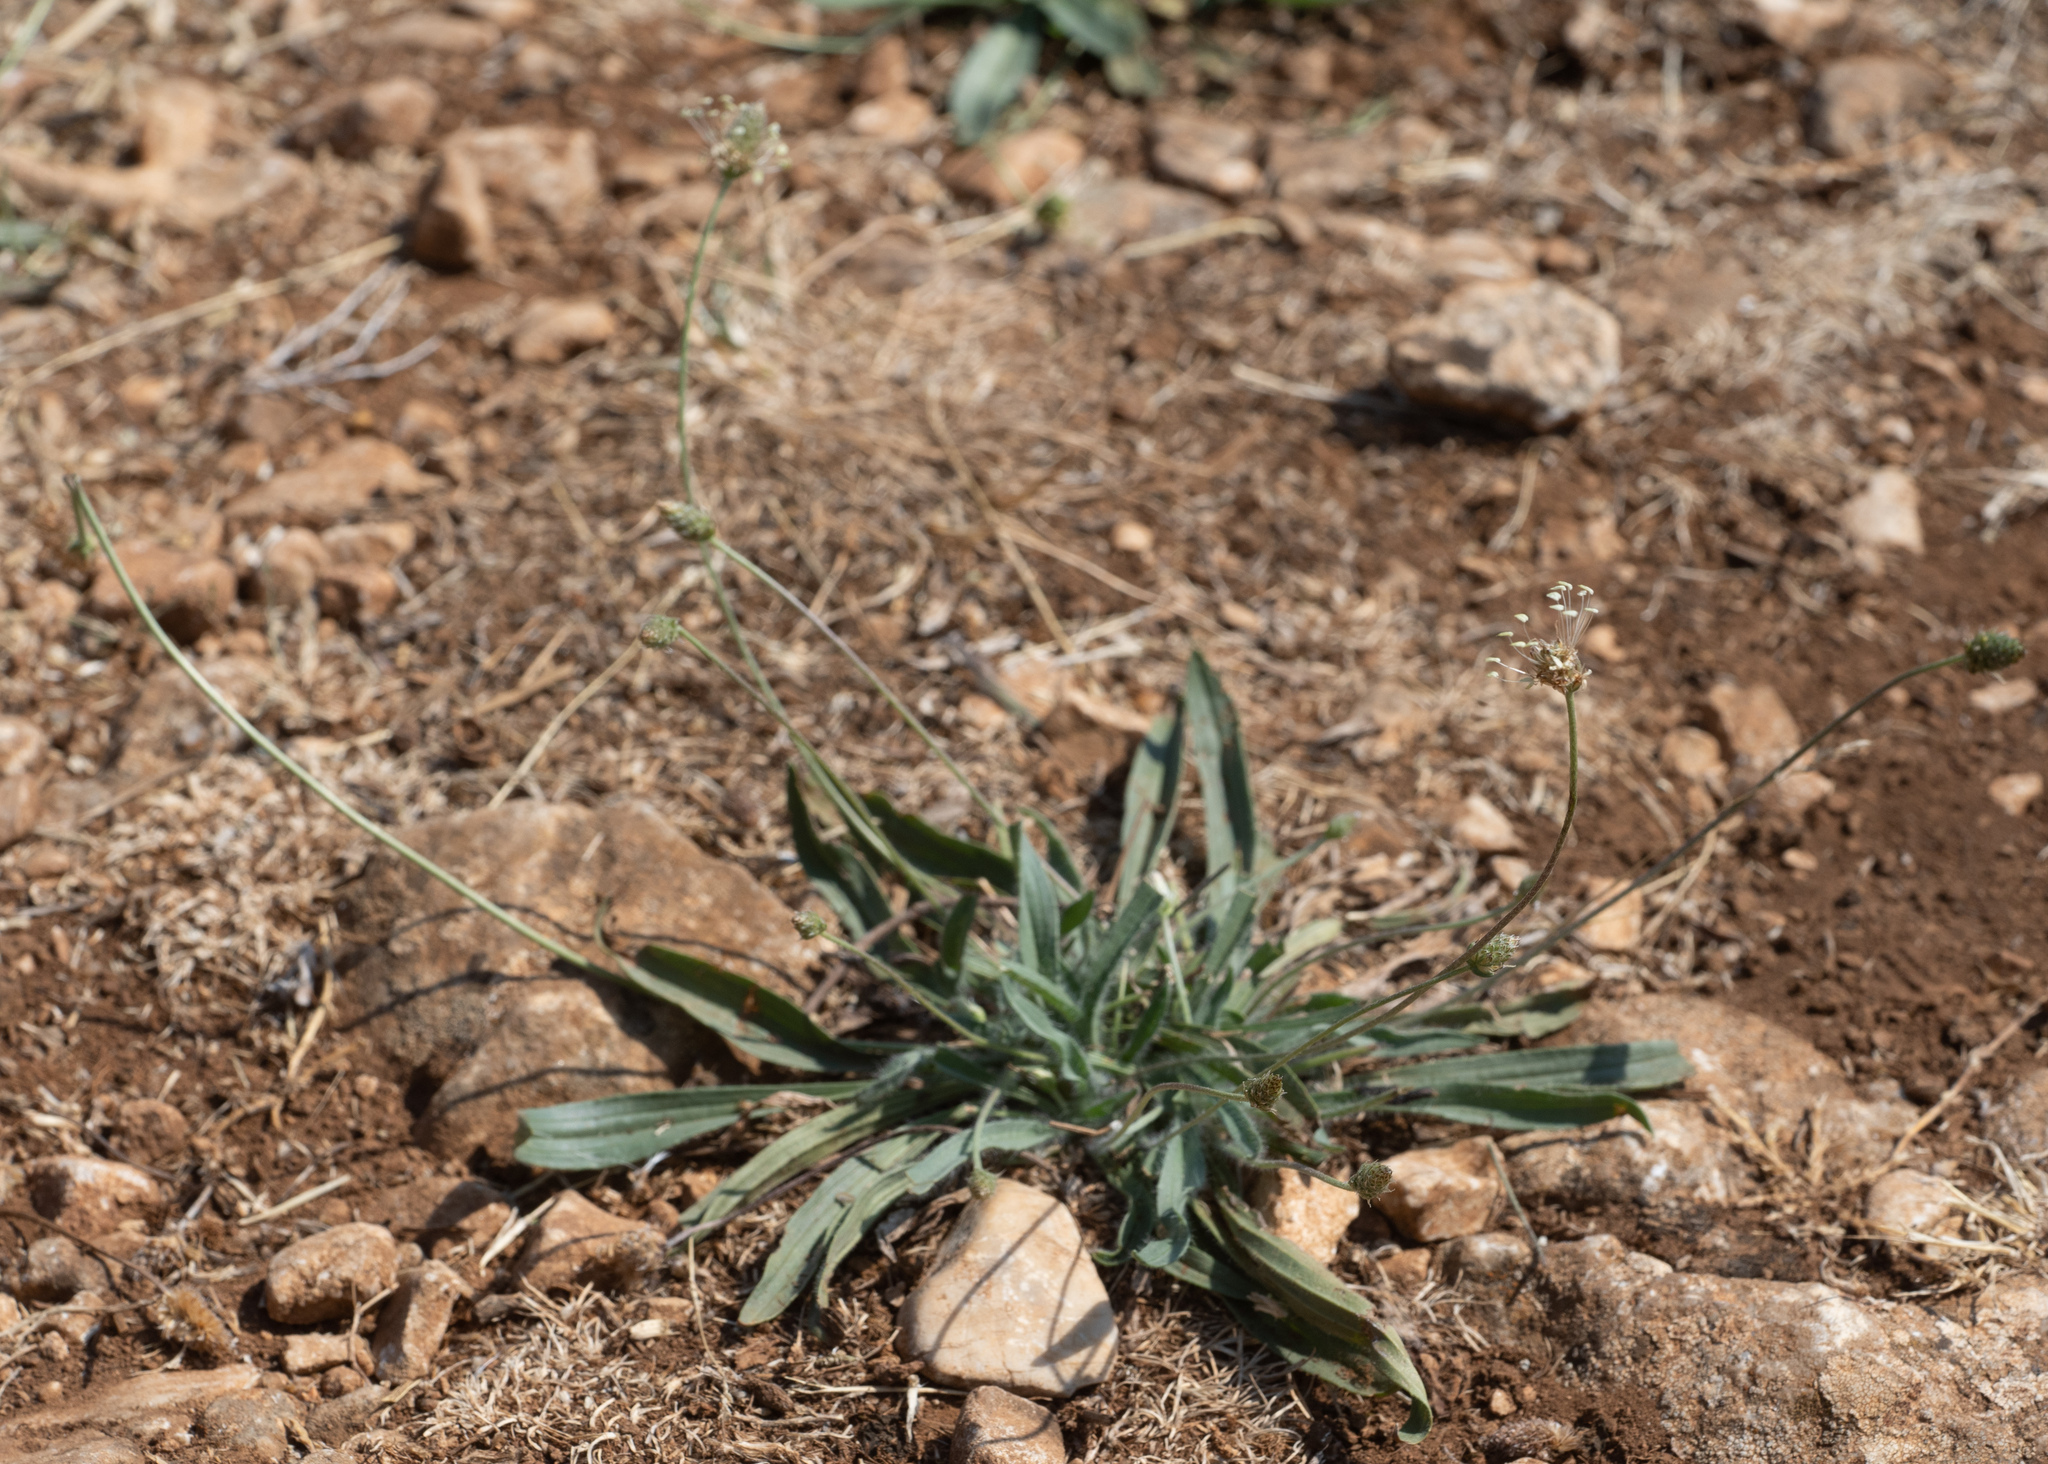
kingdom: Plantae
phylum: Tracheophyta
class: Magnoliopsida
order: Lamiales
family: Plantaginaceae
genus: Plantago
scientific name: Plantago lanceolata
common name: Ribwort plantain
